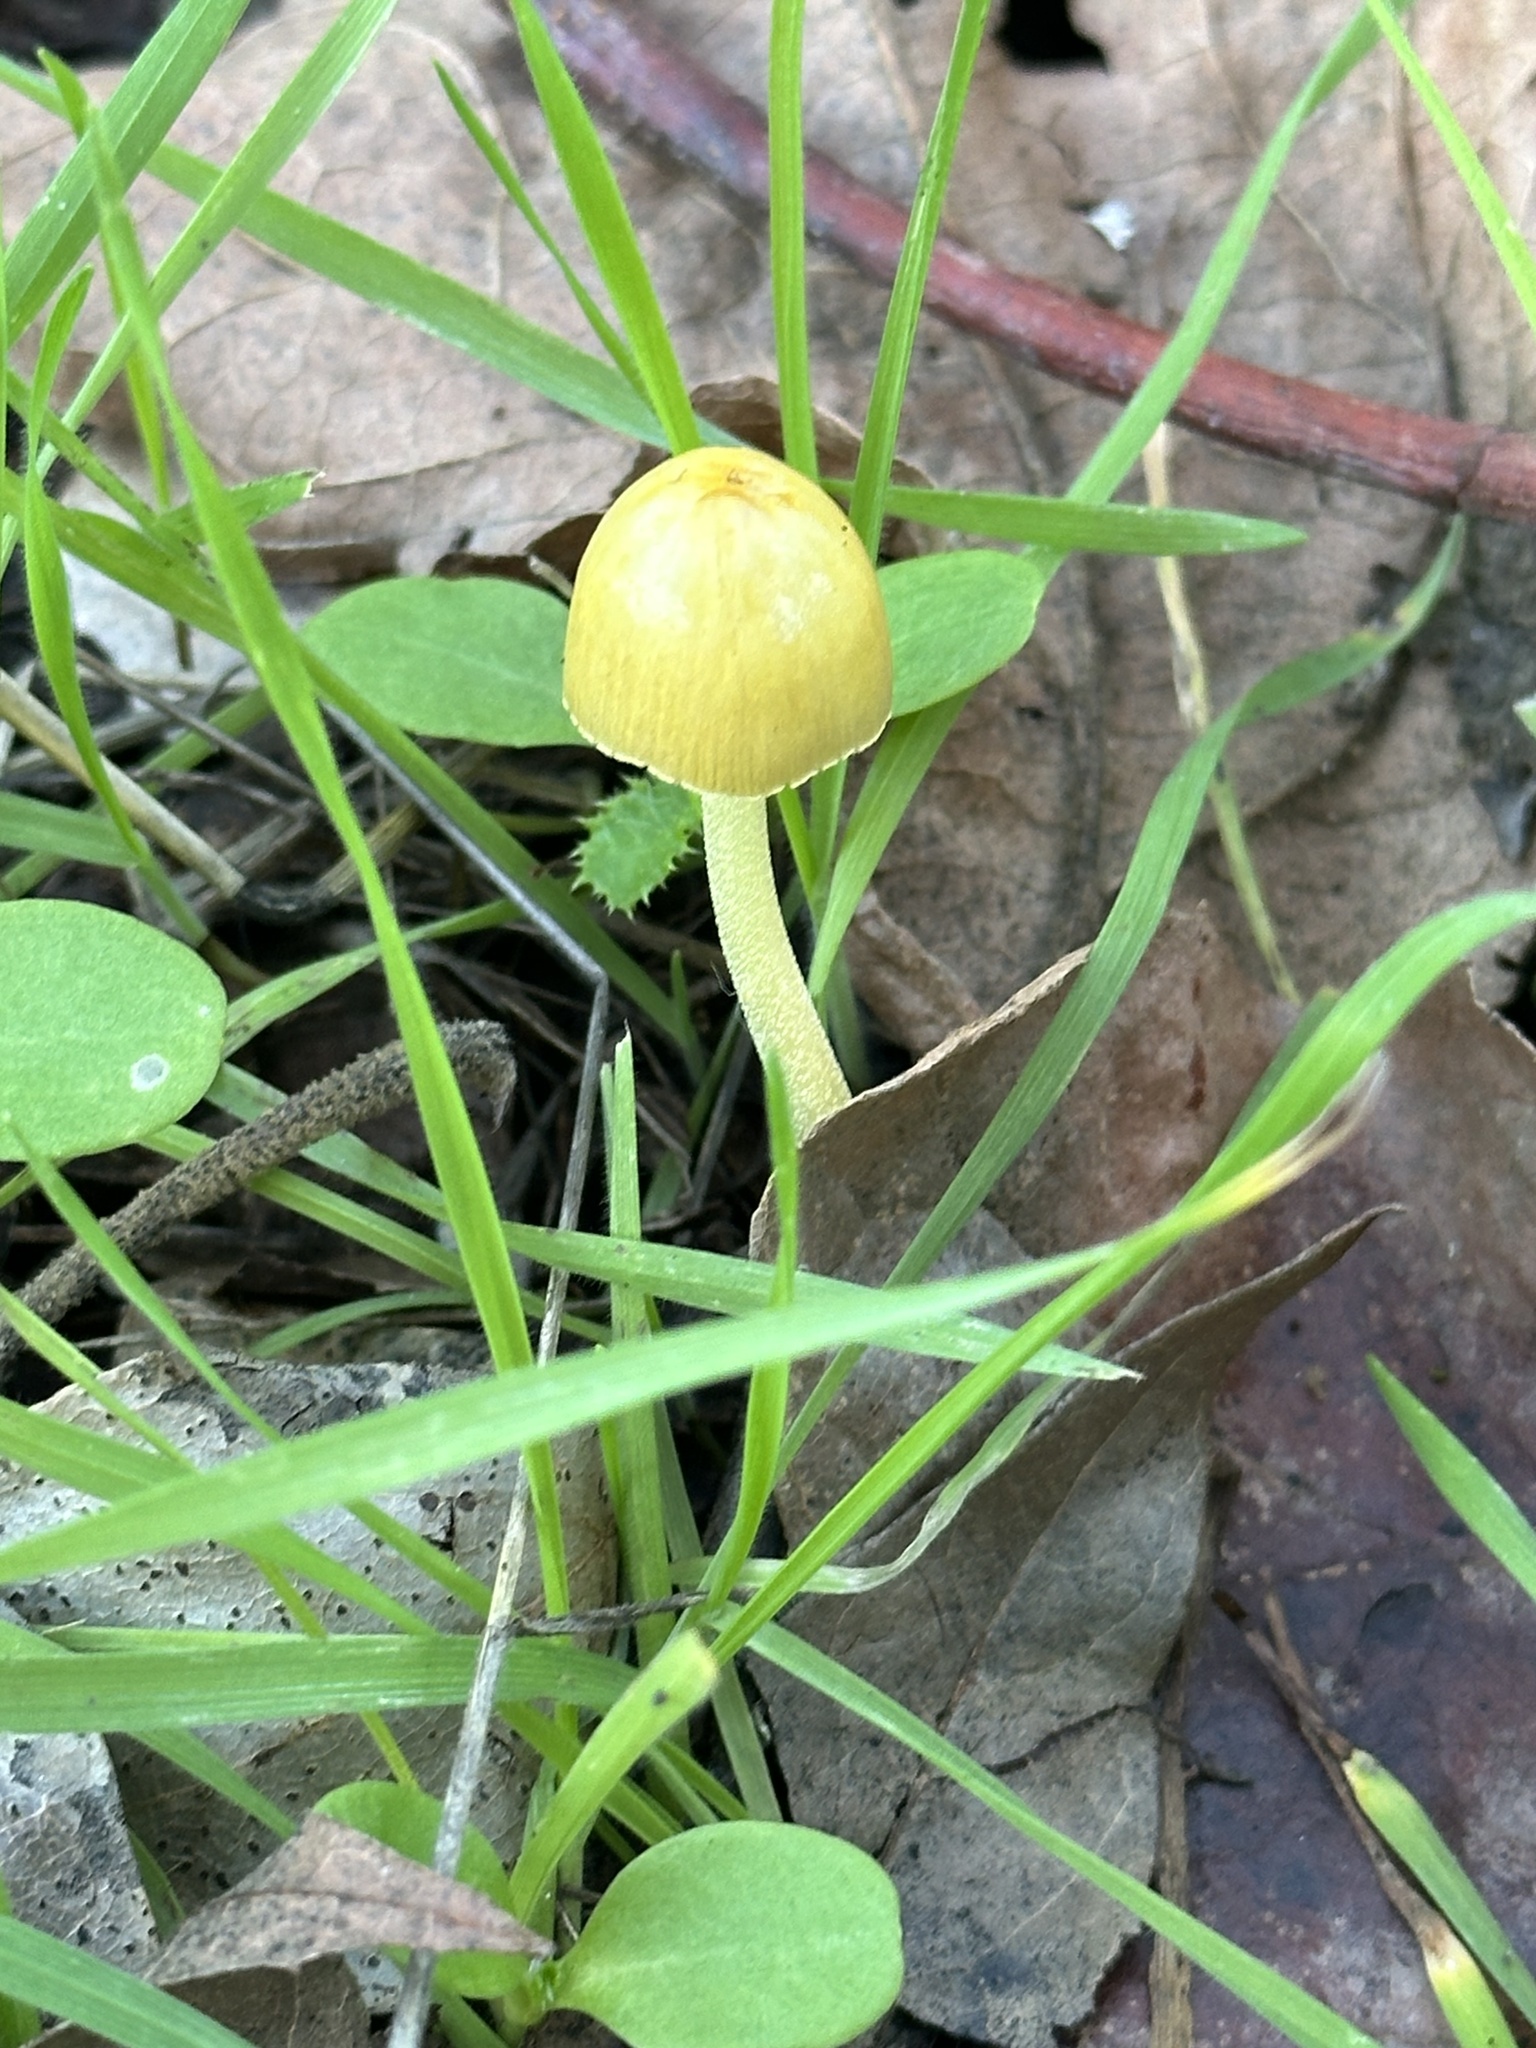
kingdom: Fungi
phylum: Basidiomycota
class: Agaricomycetes
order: Agaricales
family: Bolbitiaceae
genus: Bolbitius
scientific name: Bolbitius titubans
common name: Yellow fieldcap
